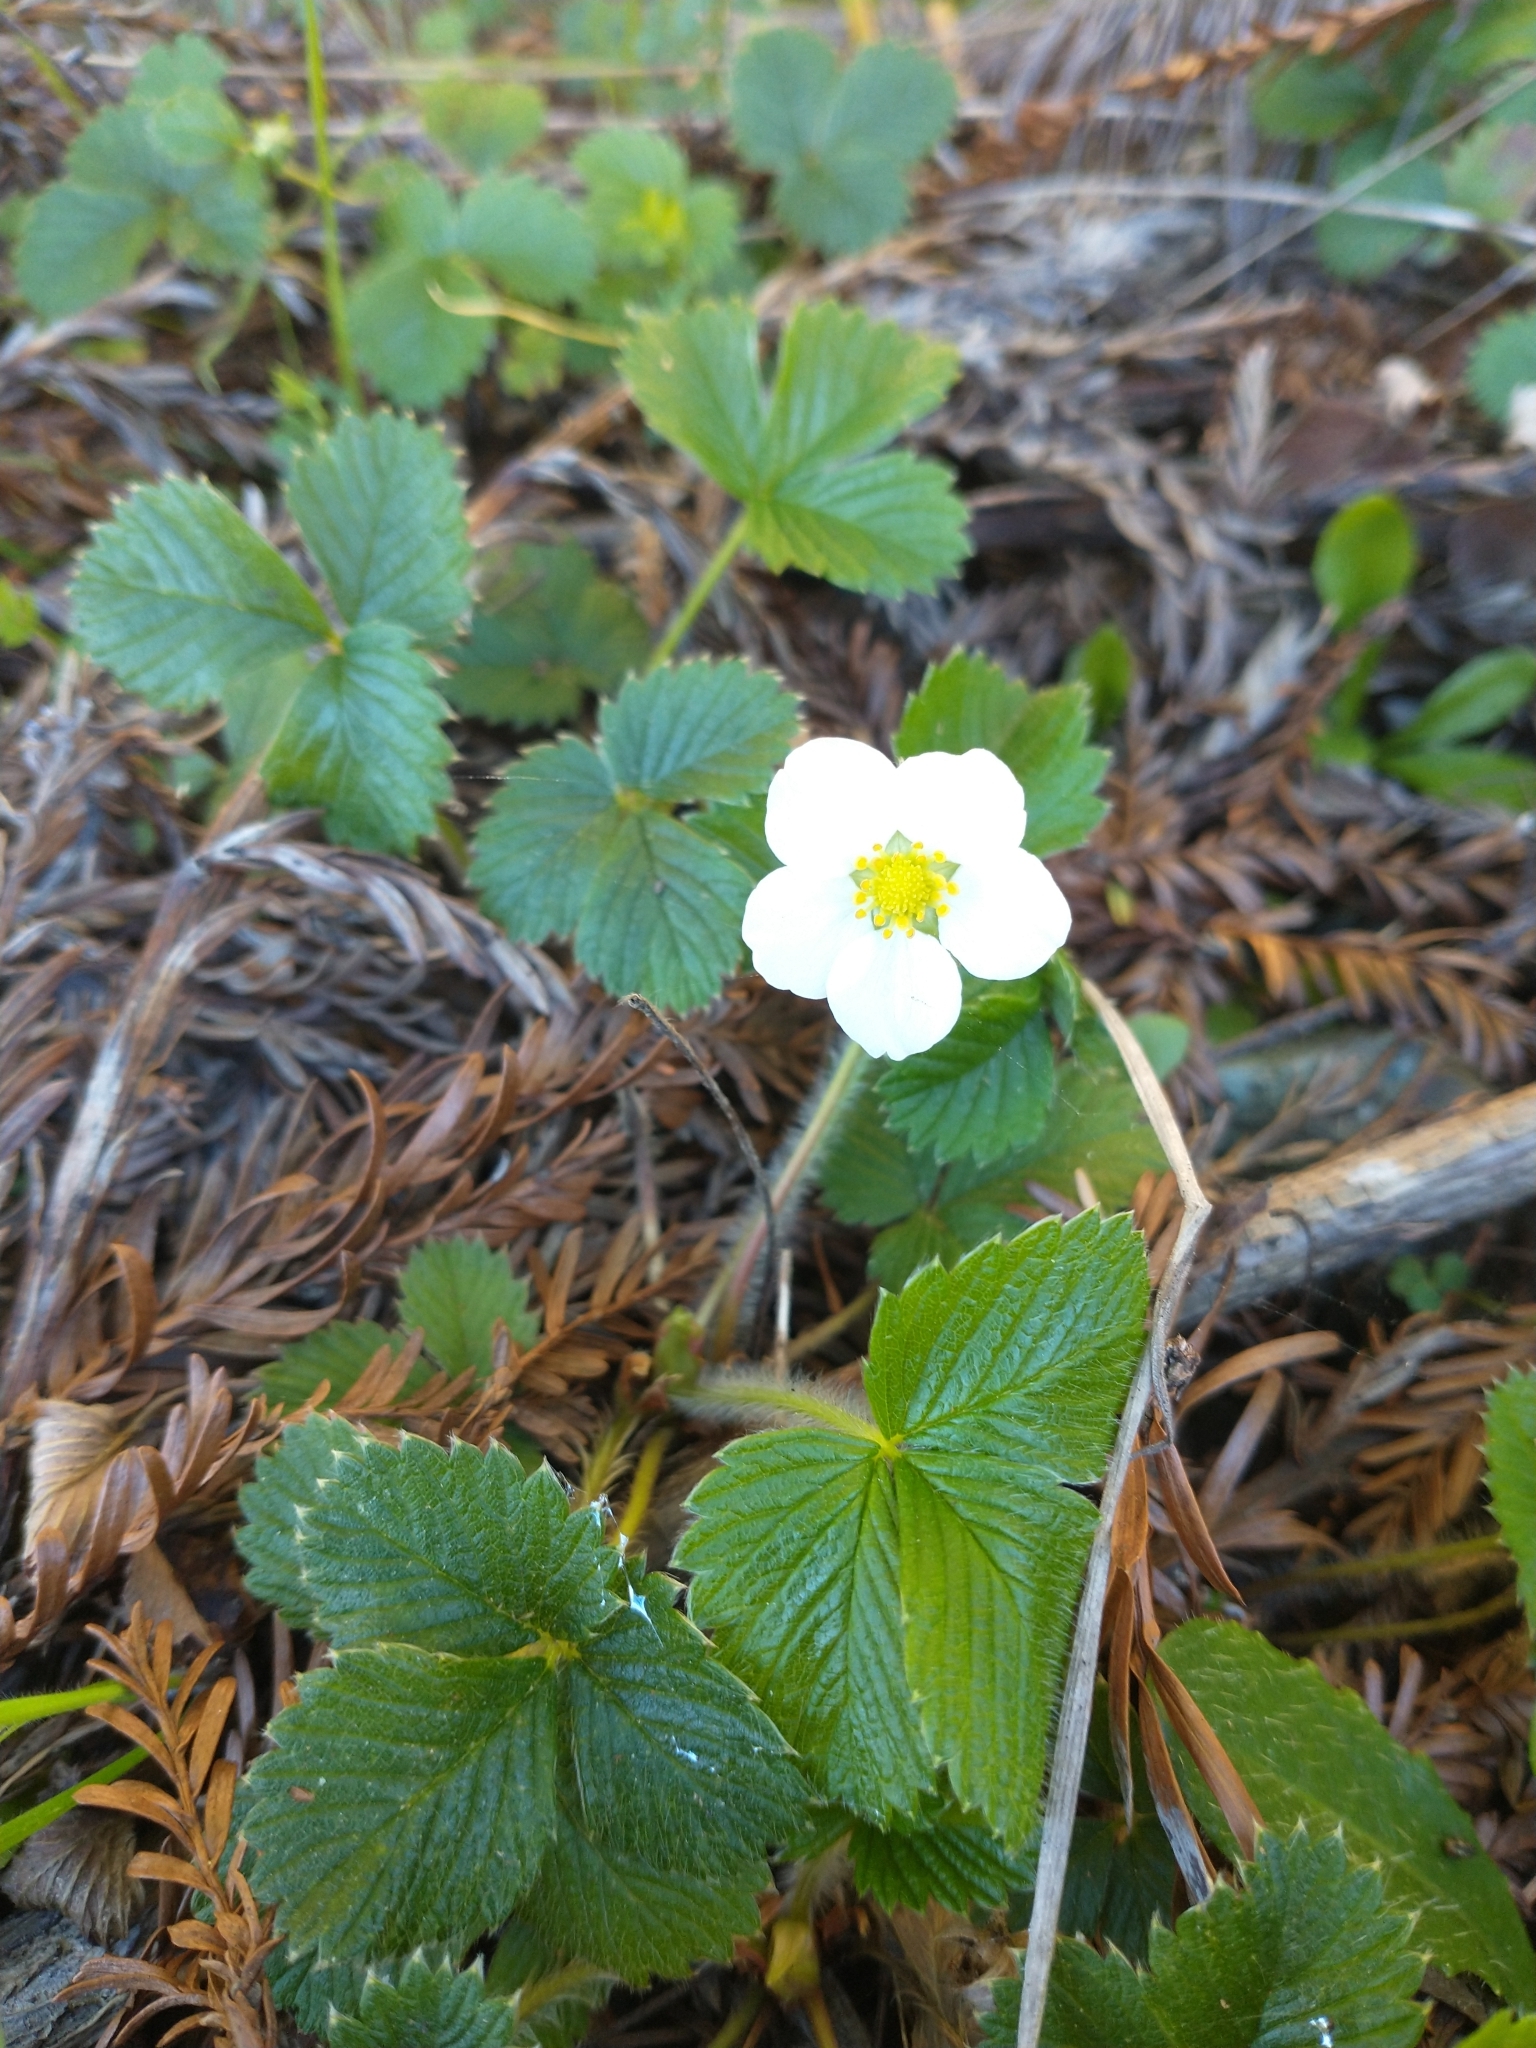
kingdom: Plantae
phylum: Tracheophyta
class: Magnoliopsida
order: Rosales
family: Rosaceae
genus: Fragaria
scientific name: Fragaria vesca
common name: Wild strawberry
